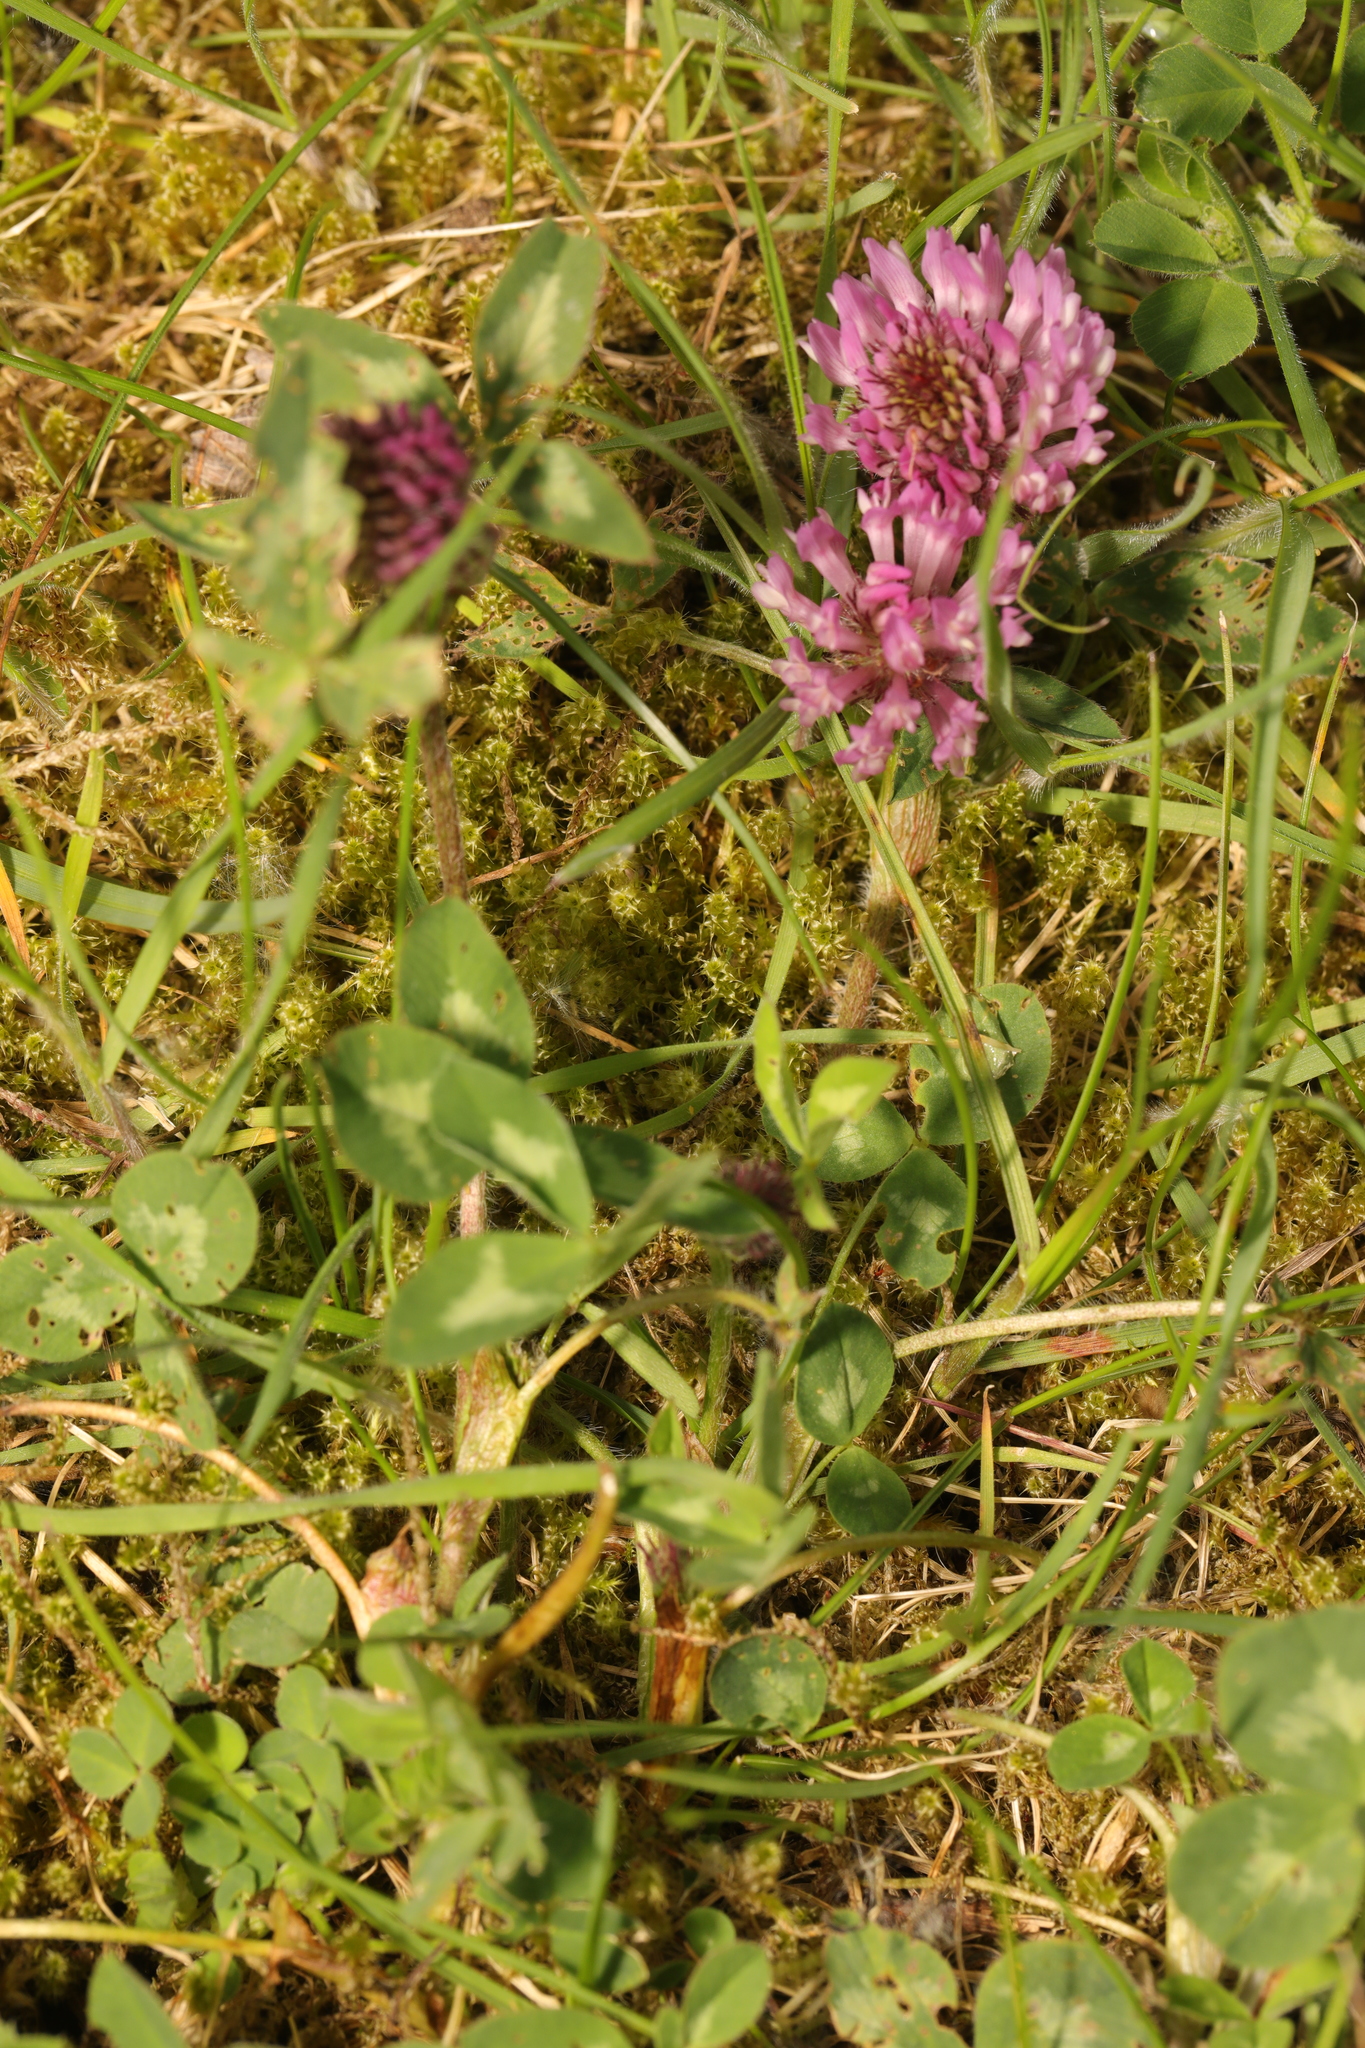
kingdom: Plantae
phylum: Tracheophyta
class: Magnoliopsida
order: Fabales
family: Fabaceae
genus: Trifolium
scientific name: Trifolium pratense
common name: Red clover
